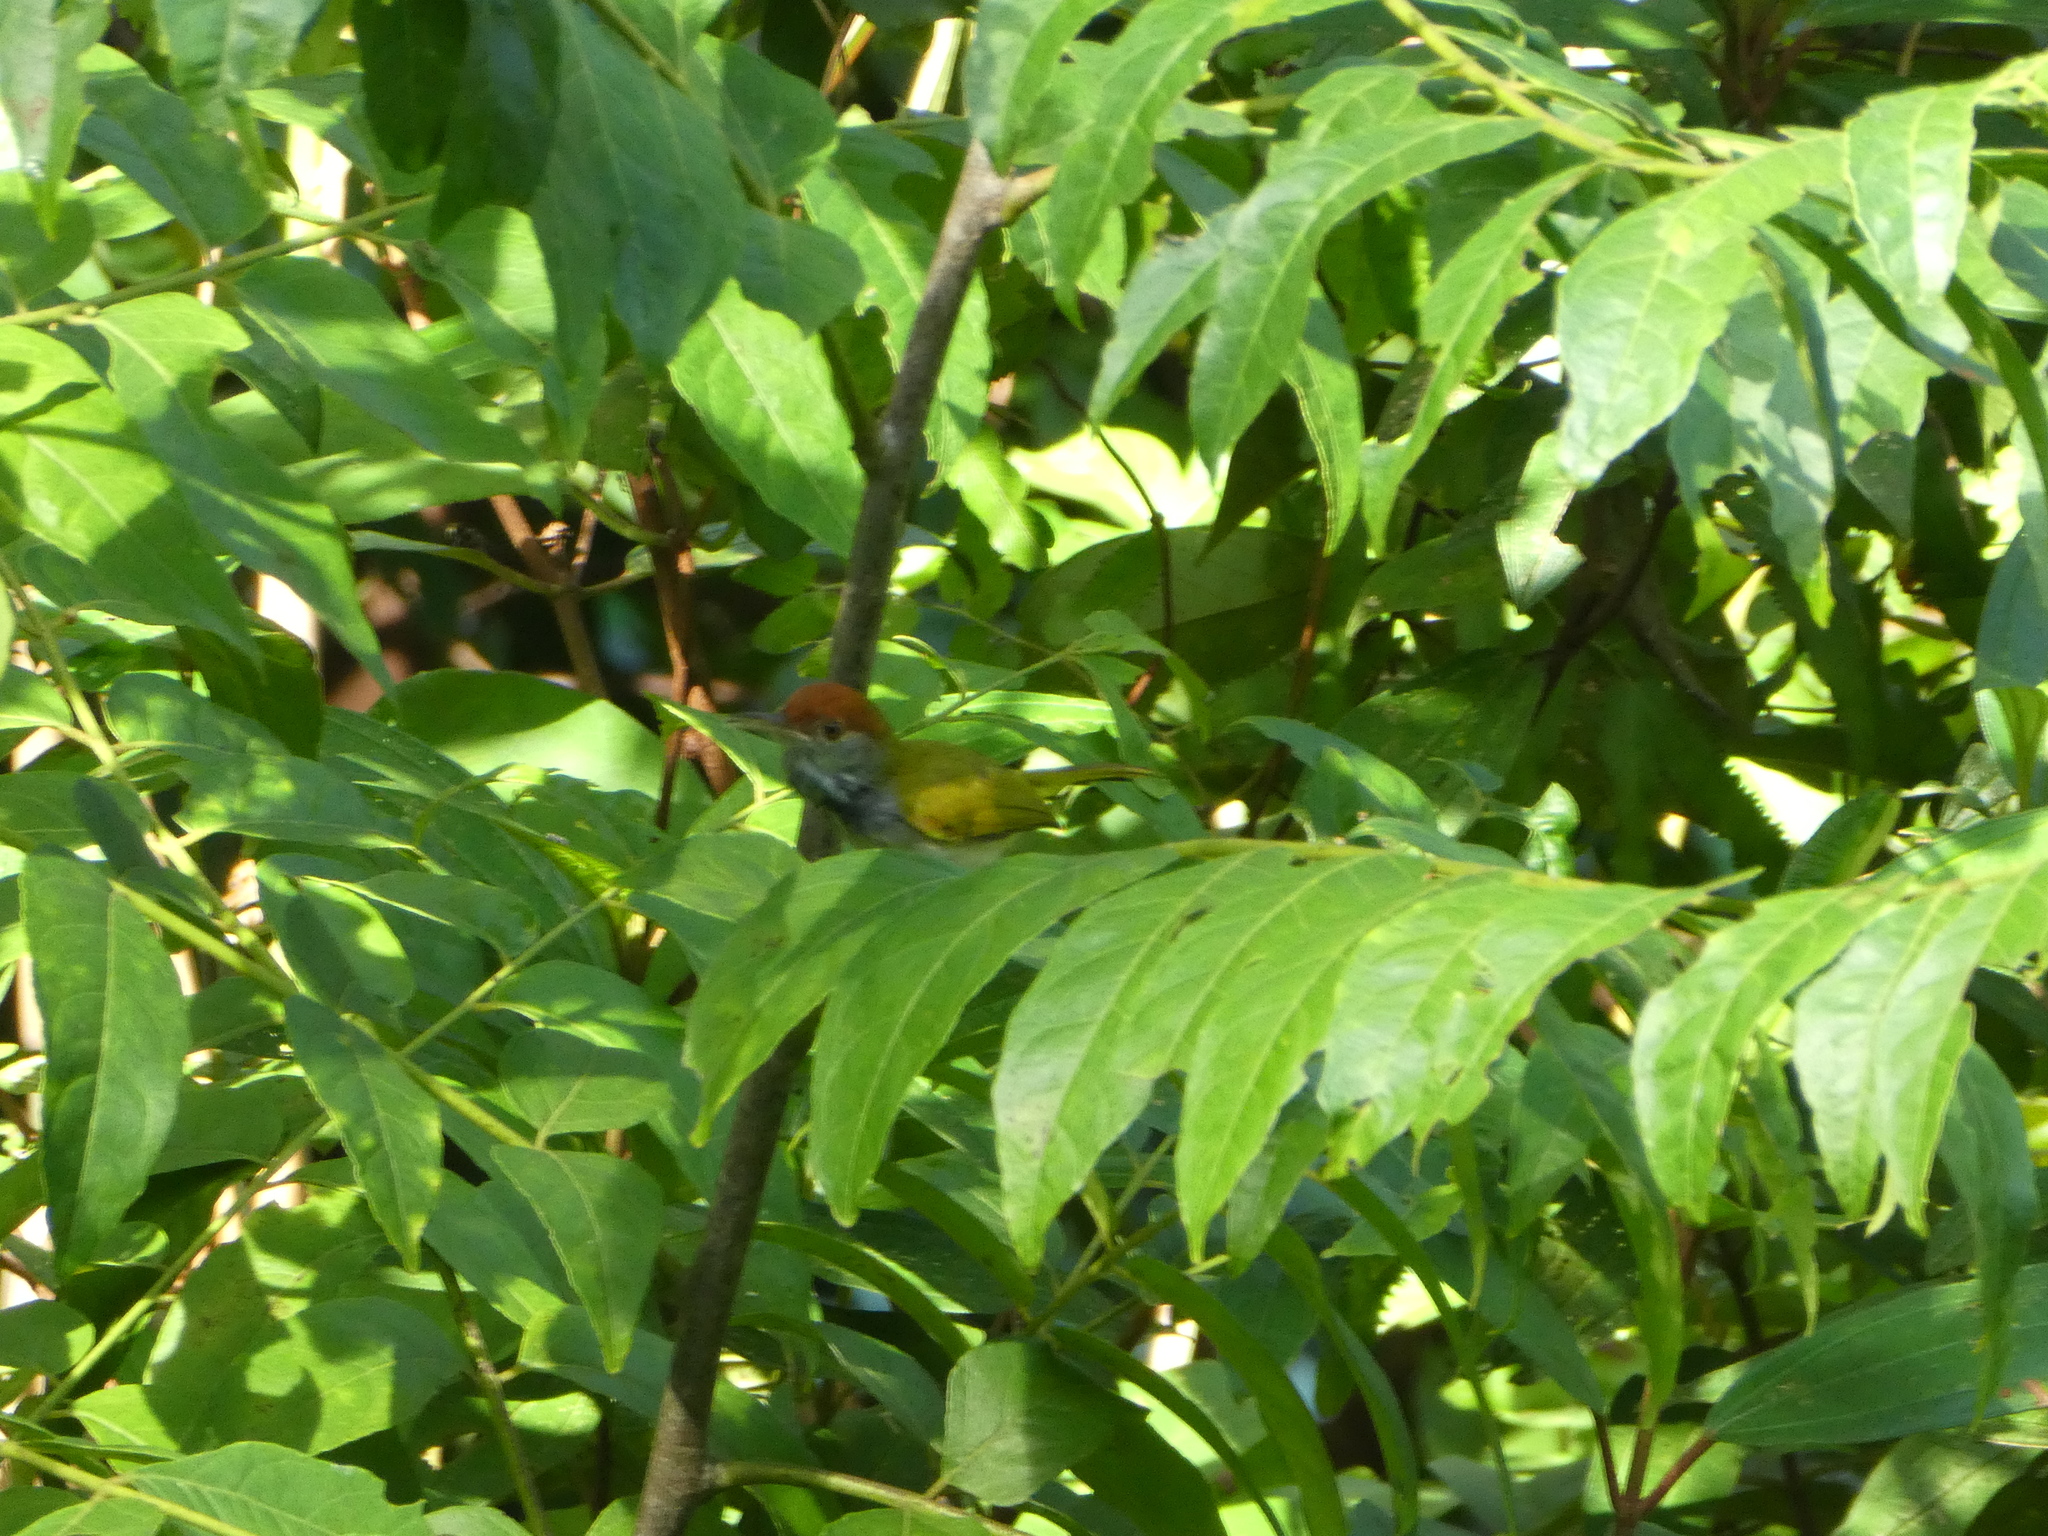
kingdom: Animalia
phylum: Chordata
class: Aves
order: Passeriformes
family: Cisticolidae
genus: Orthotomus
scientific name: Orthotomus atrogularis
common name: Dark-necked tailorbird
